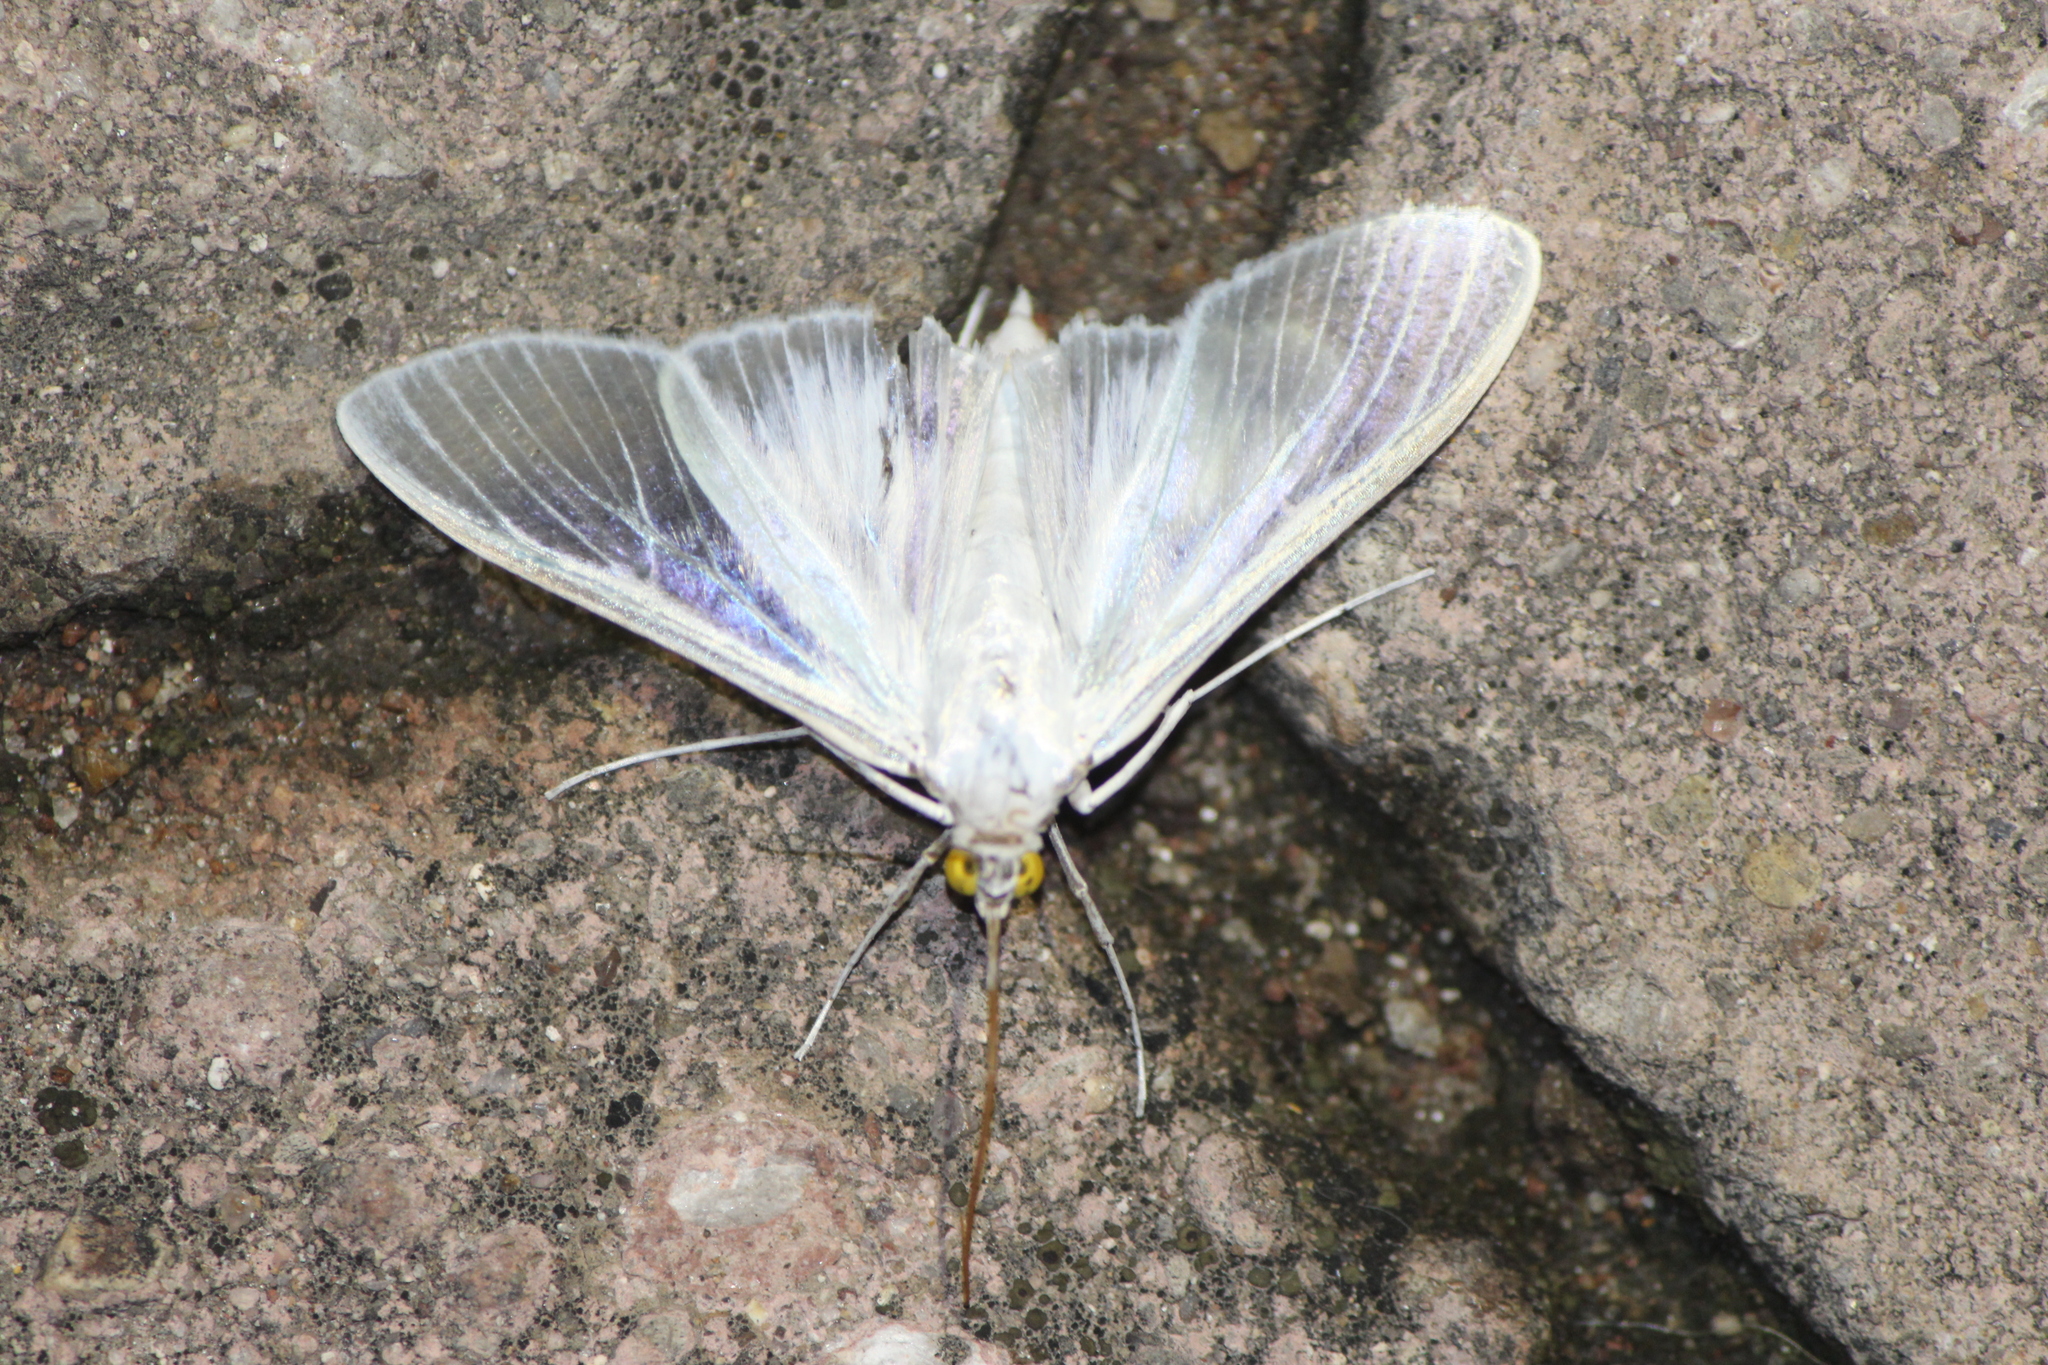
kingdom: Animalia
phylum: Arthropoda
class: Insecta
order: Lepidoptera
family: Crambidae
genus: Palpita
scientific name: Palpita flegia
